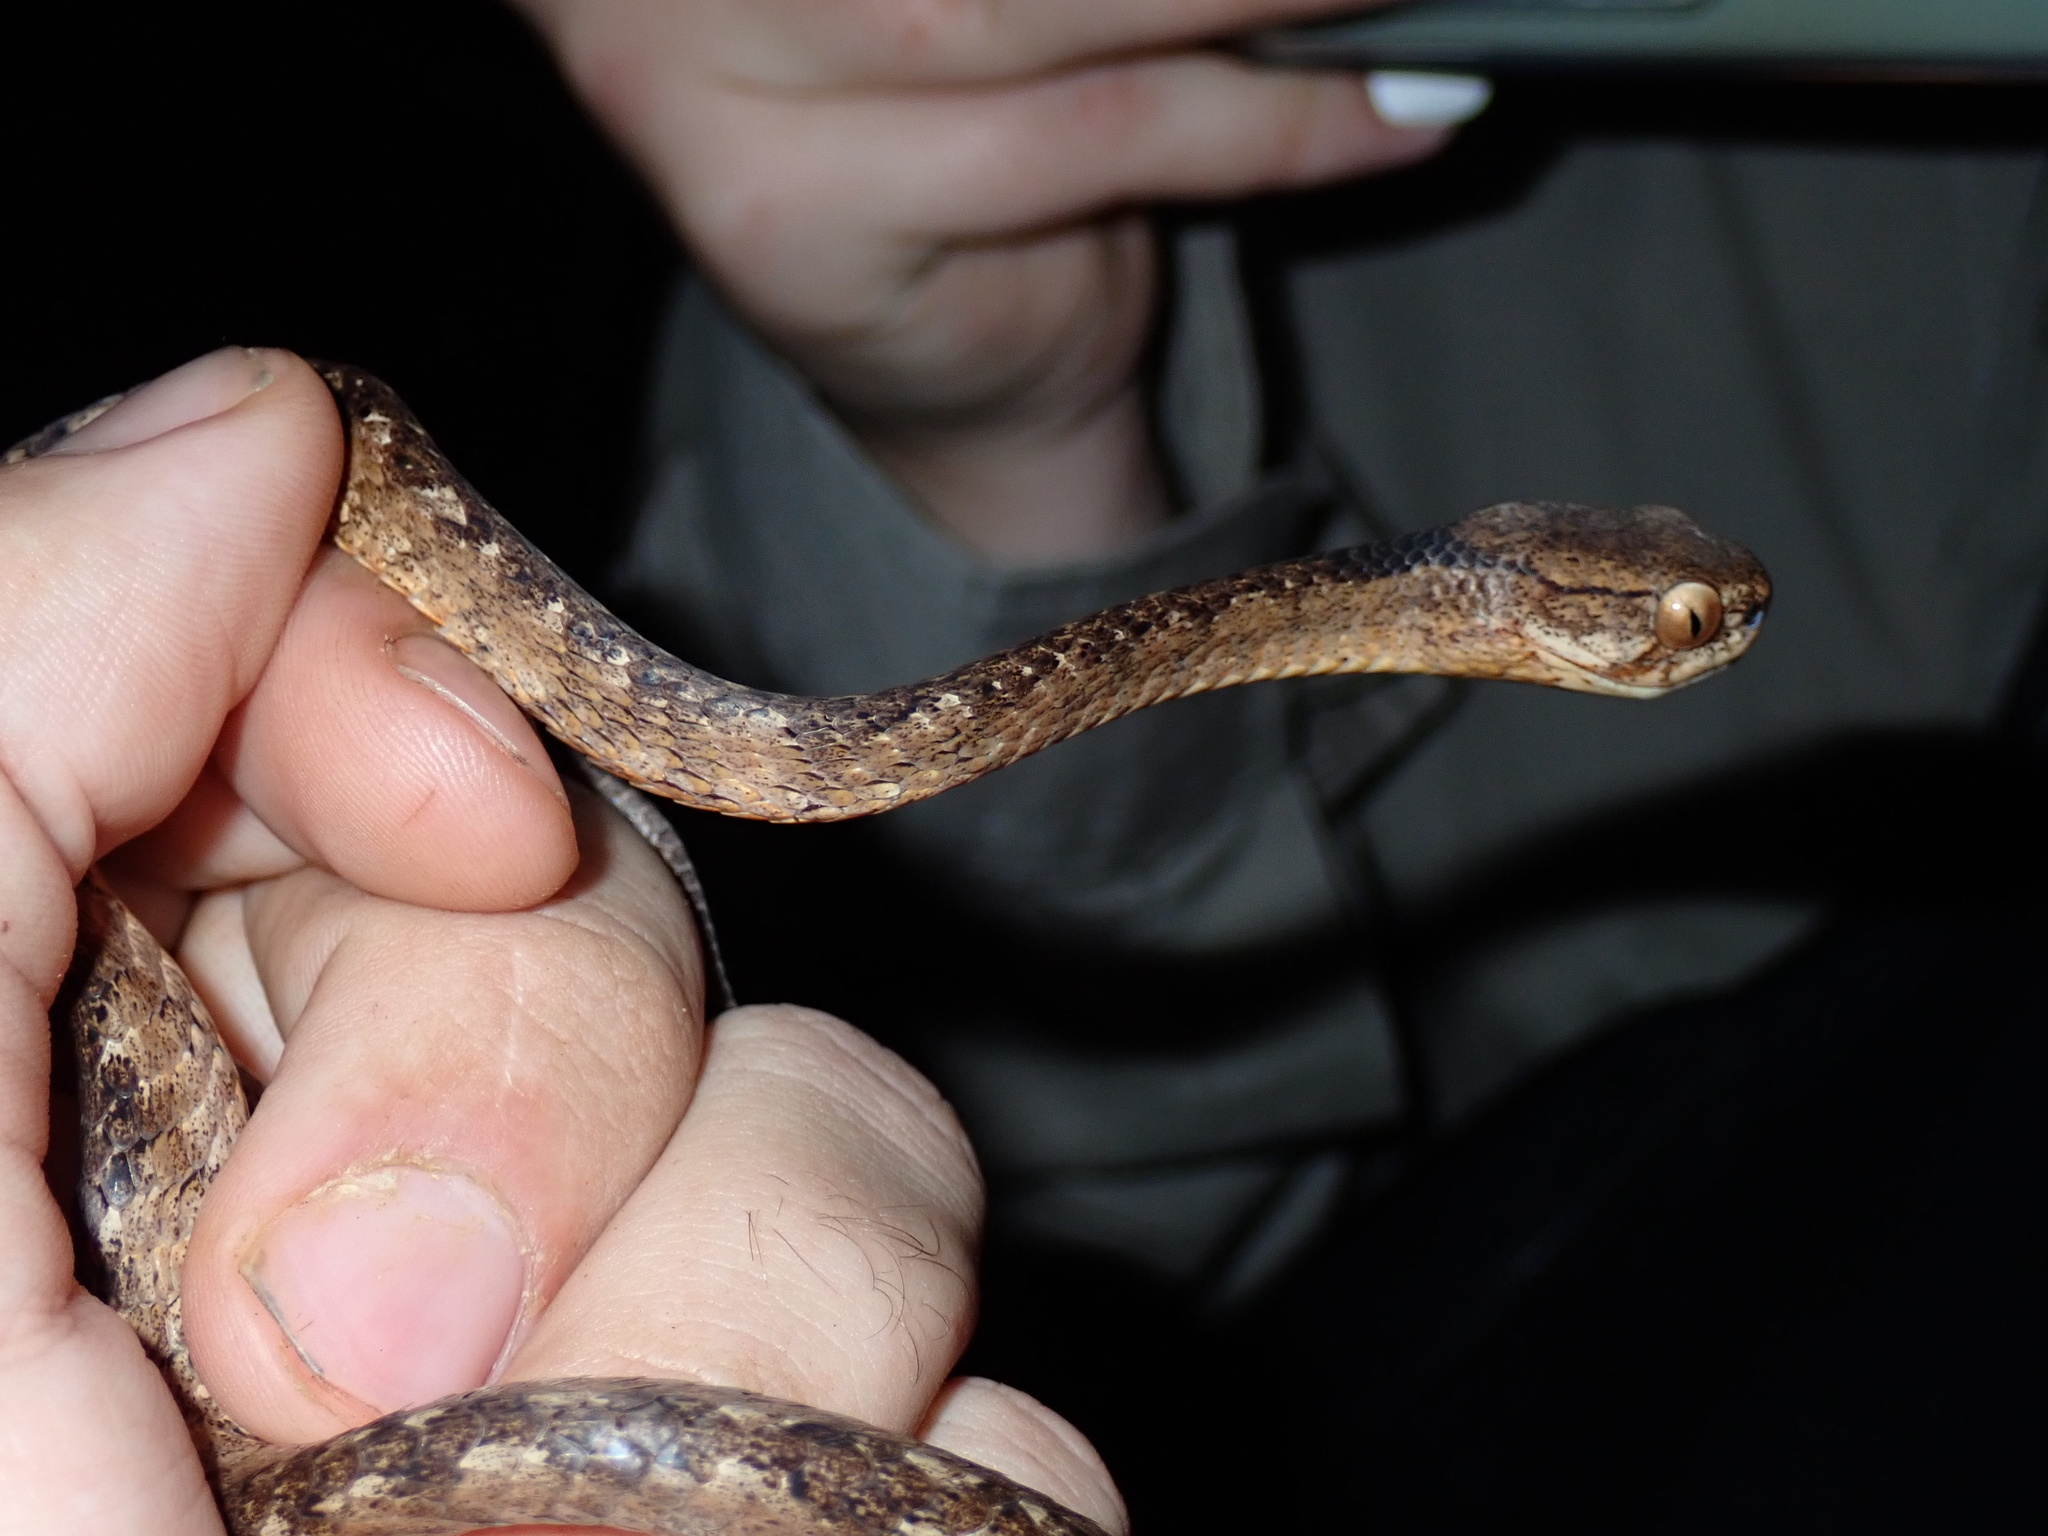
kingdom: Animalia
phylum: Chordata
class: Squamata
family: Pareidae
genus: Pareas
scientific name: Pareas carinatus
